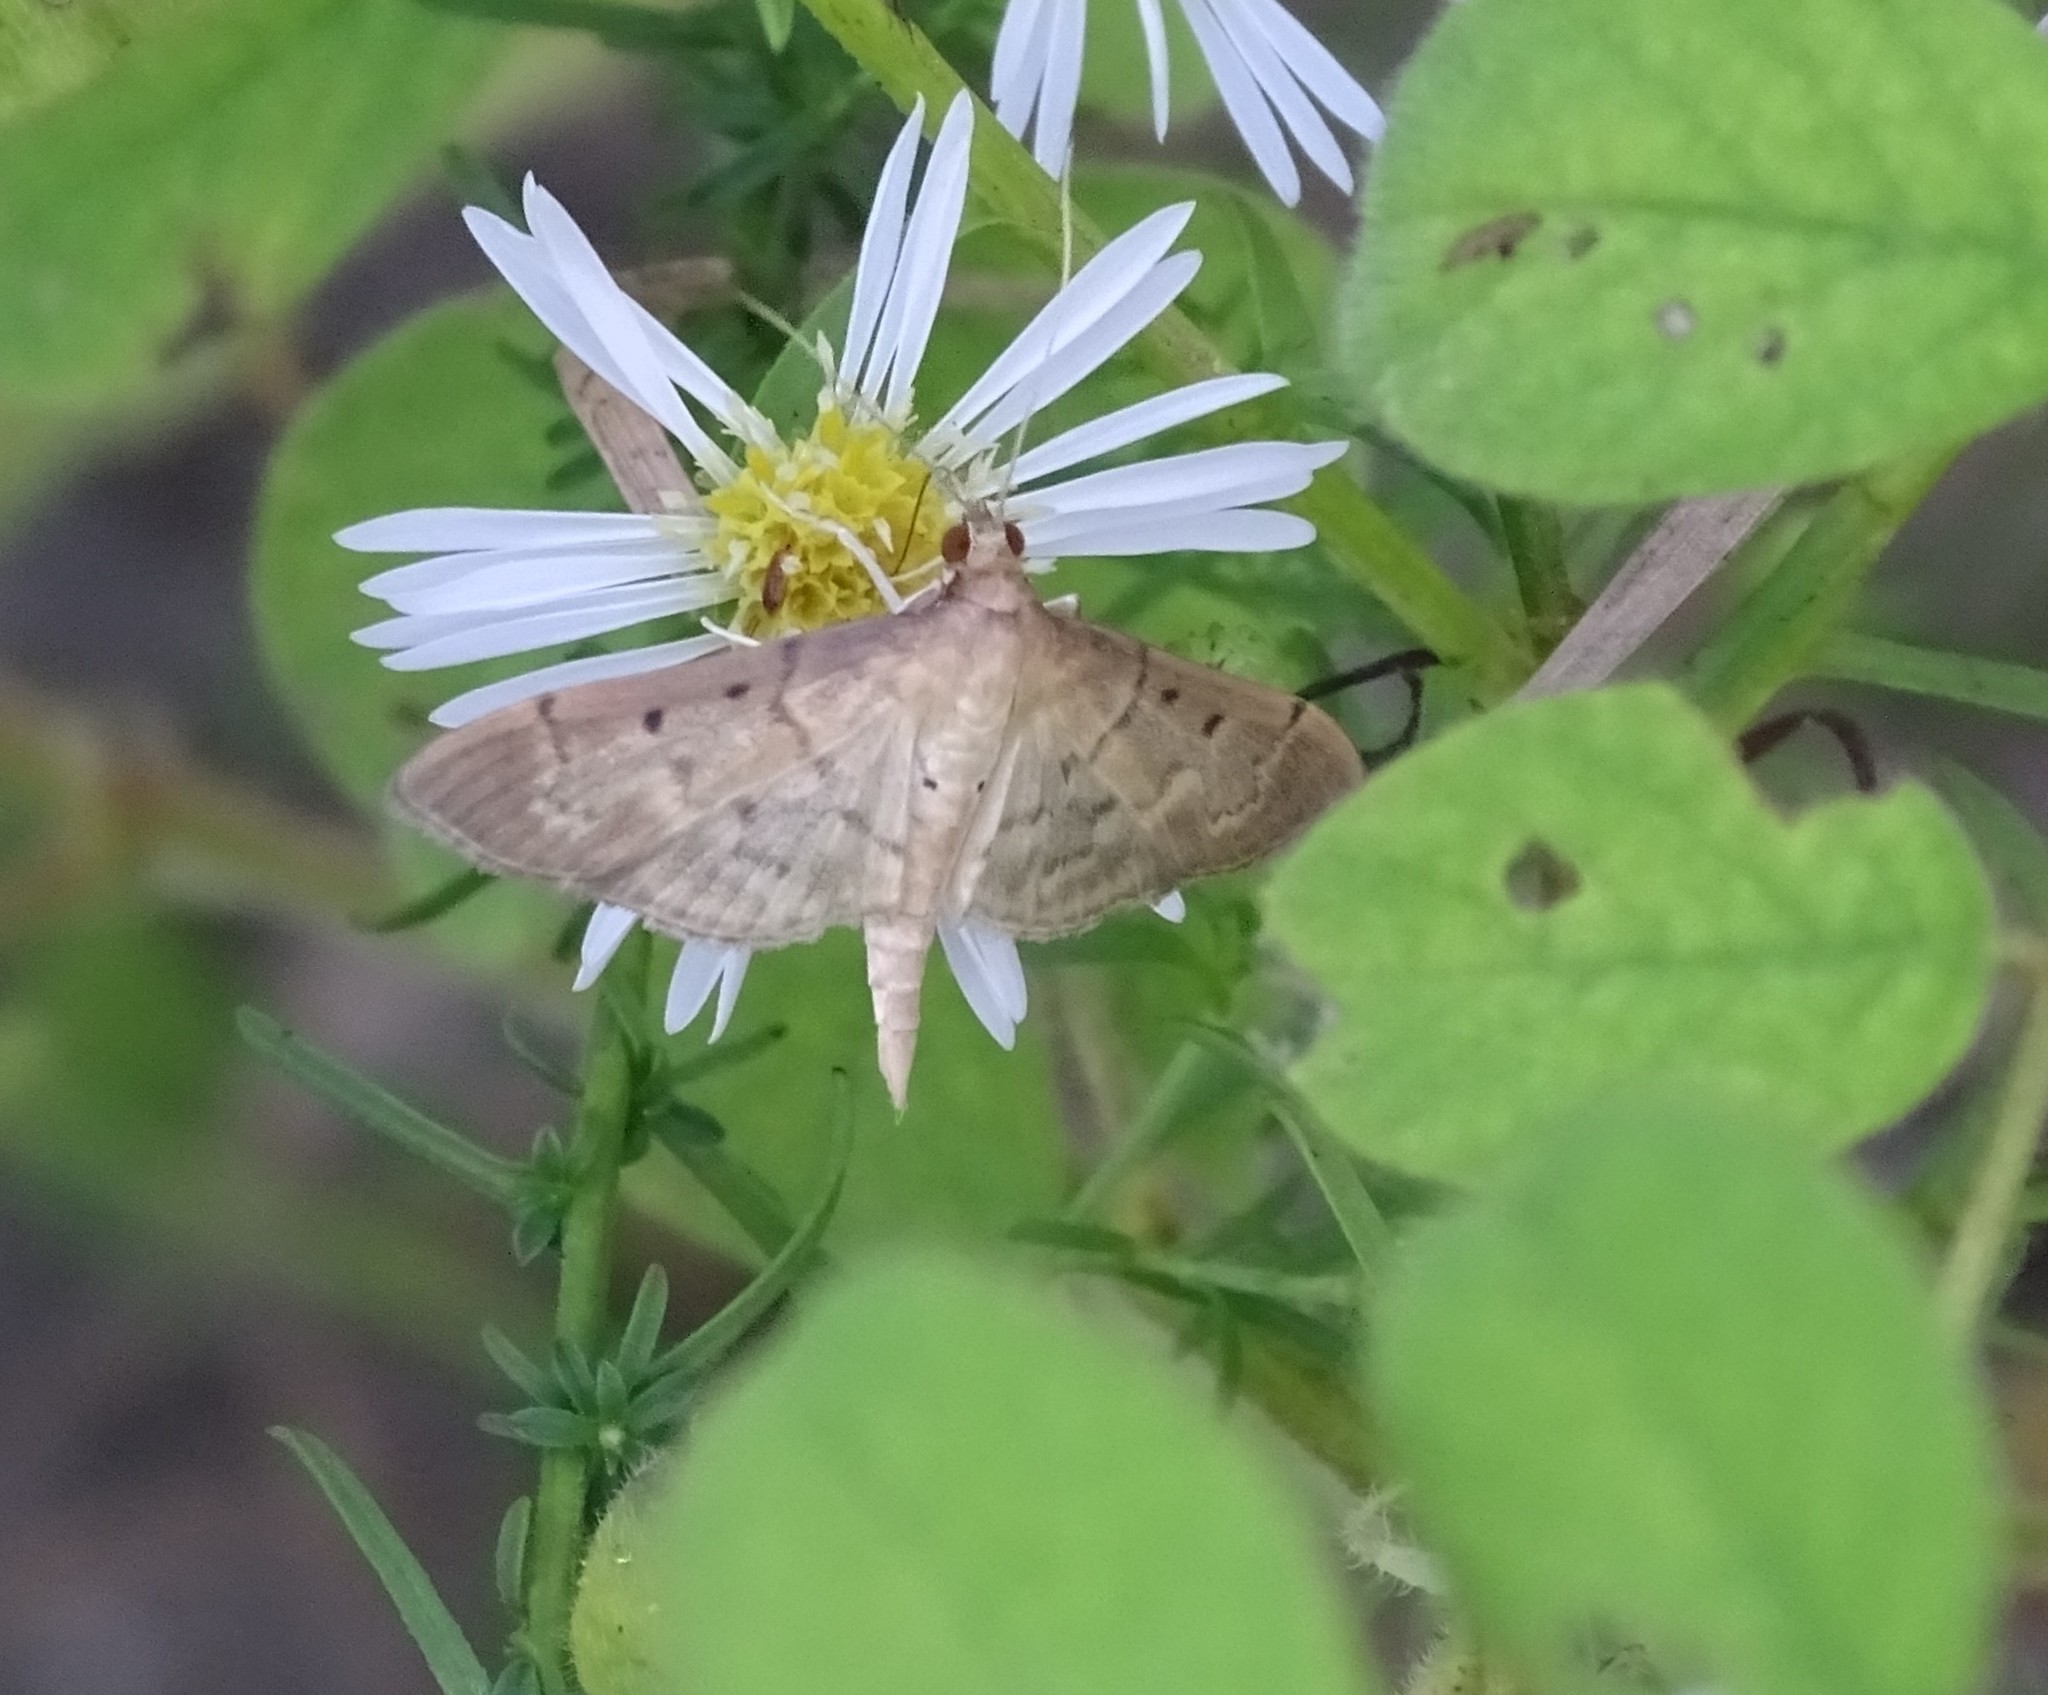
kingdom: Animalia
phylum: Arthropoda
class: Insecta
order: Lepidoptera
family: Crambidae
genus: Herpetogramma
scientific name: Herpetogramma bipunctalis
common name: Southern beet webworm
